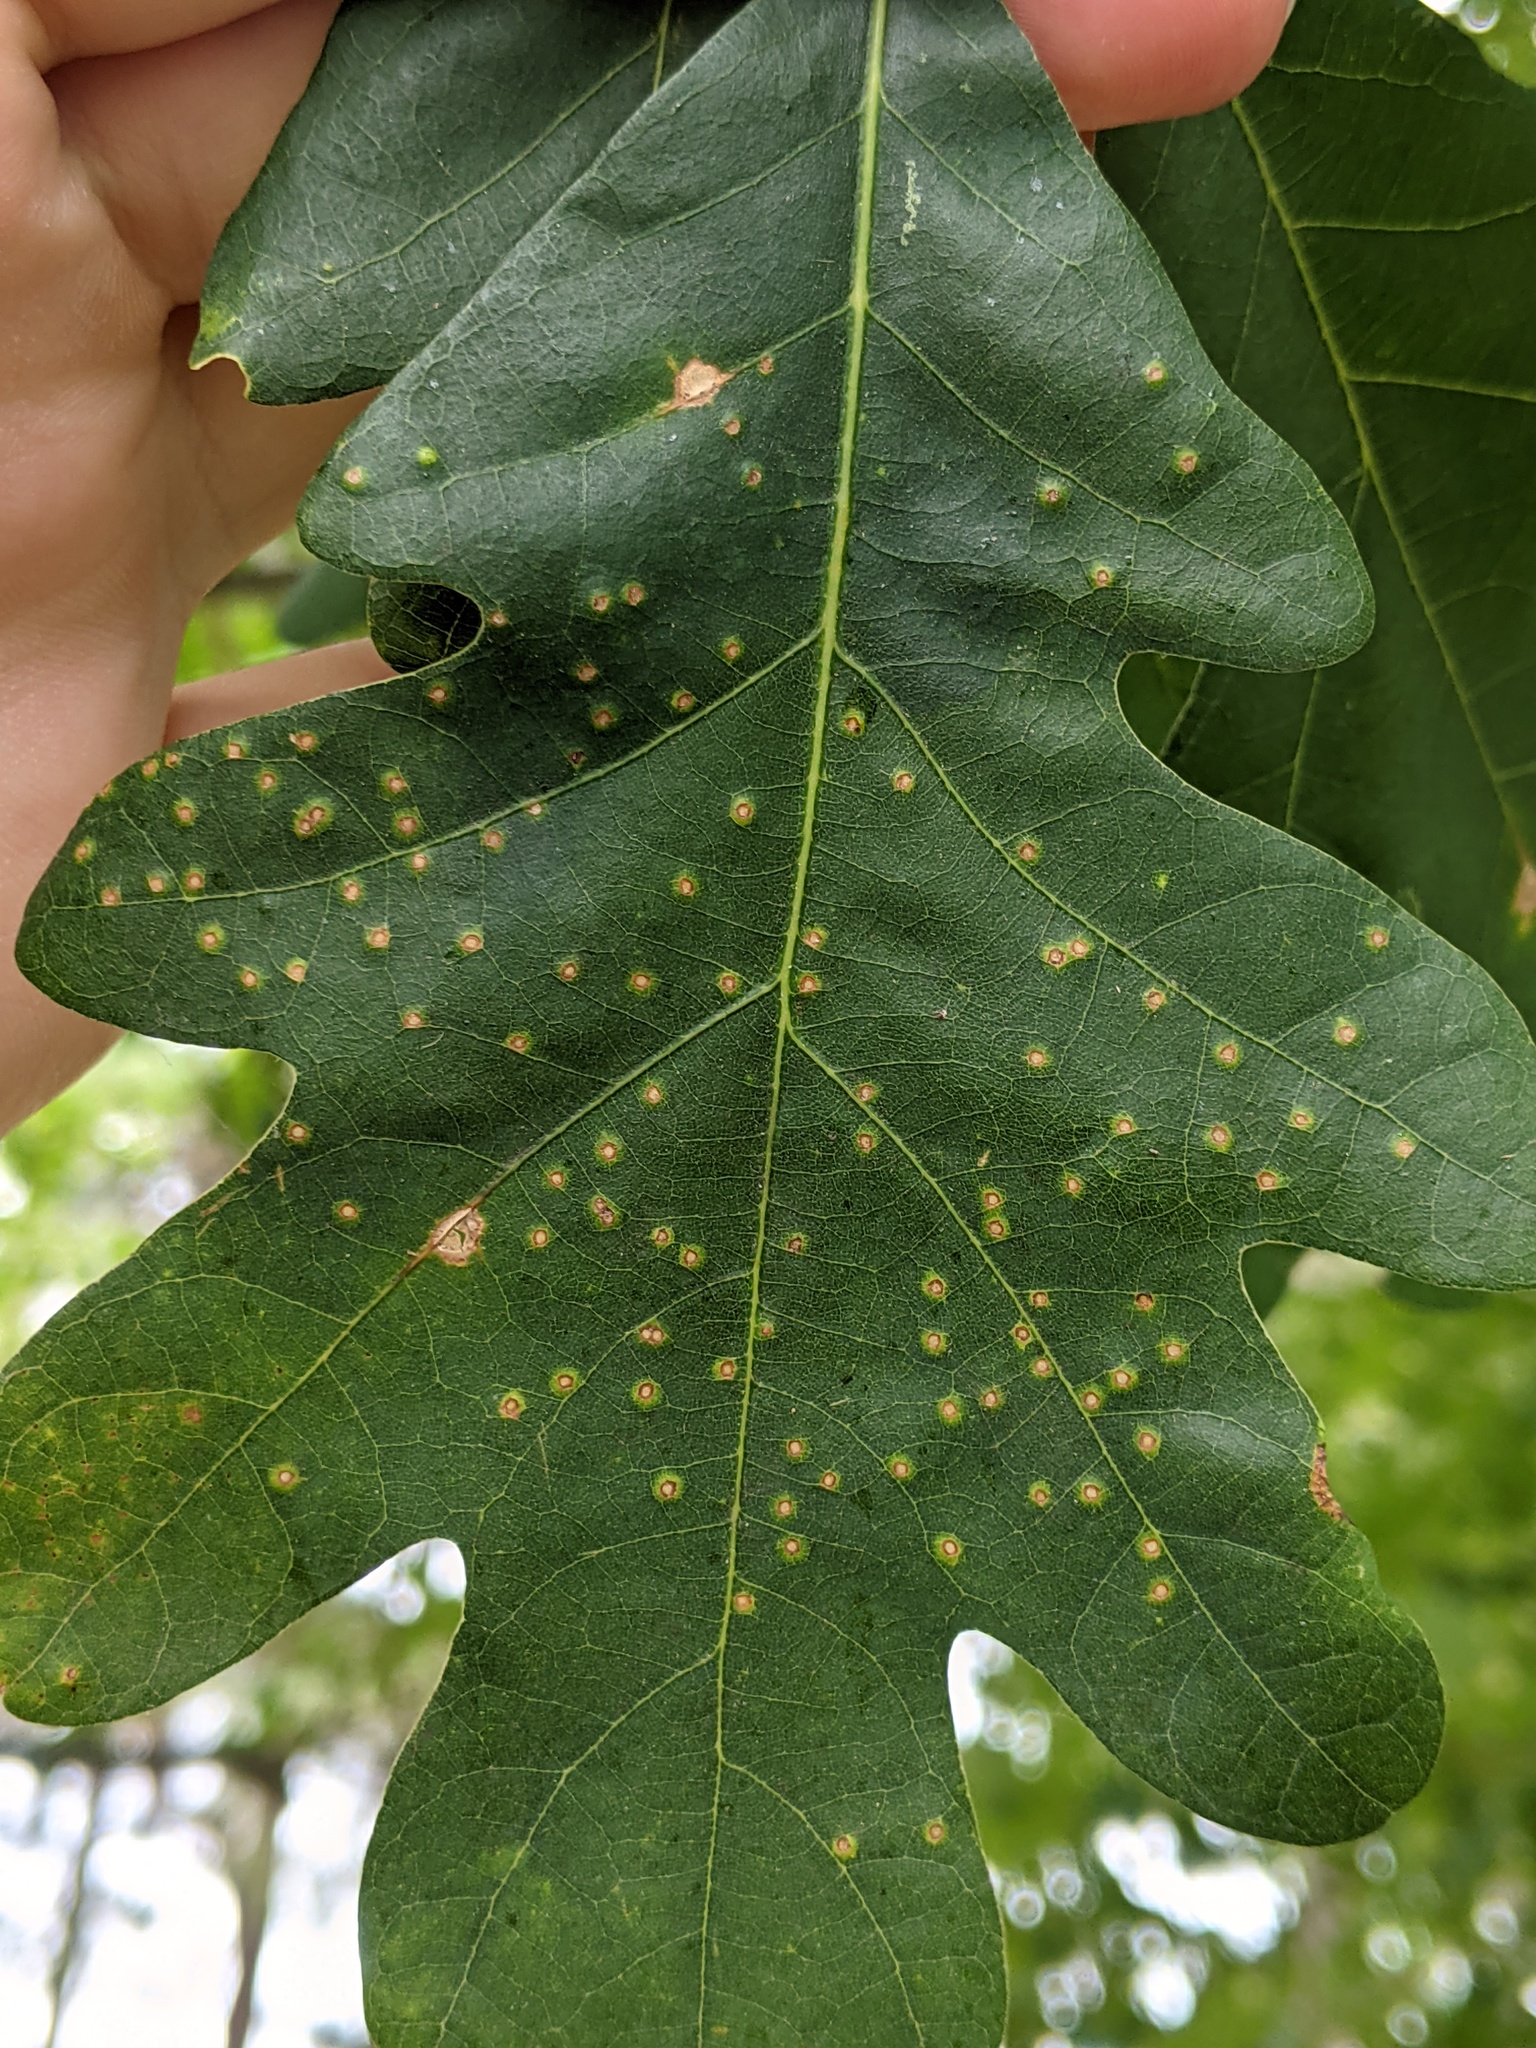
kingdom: Animalia
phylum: Arthropoda
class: Insecta
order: Hymenoptera
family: Cynipidae
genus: Neuroterus
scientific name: Neuroterus
